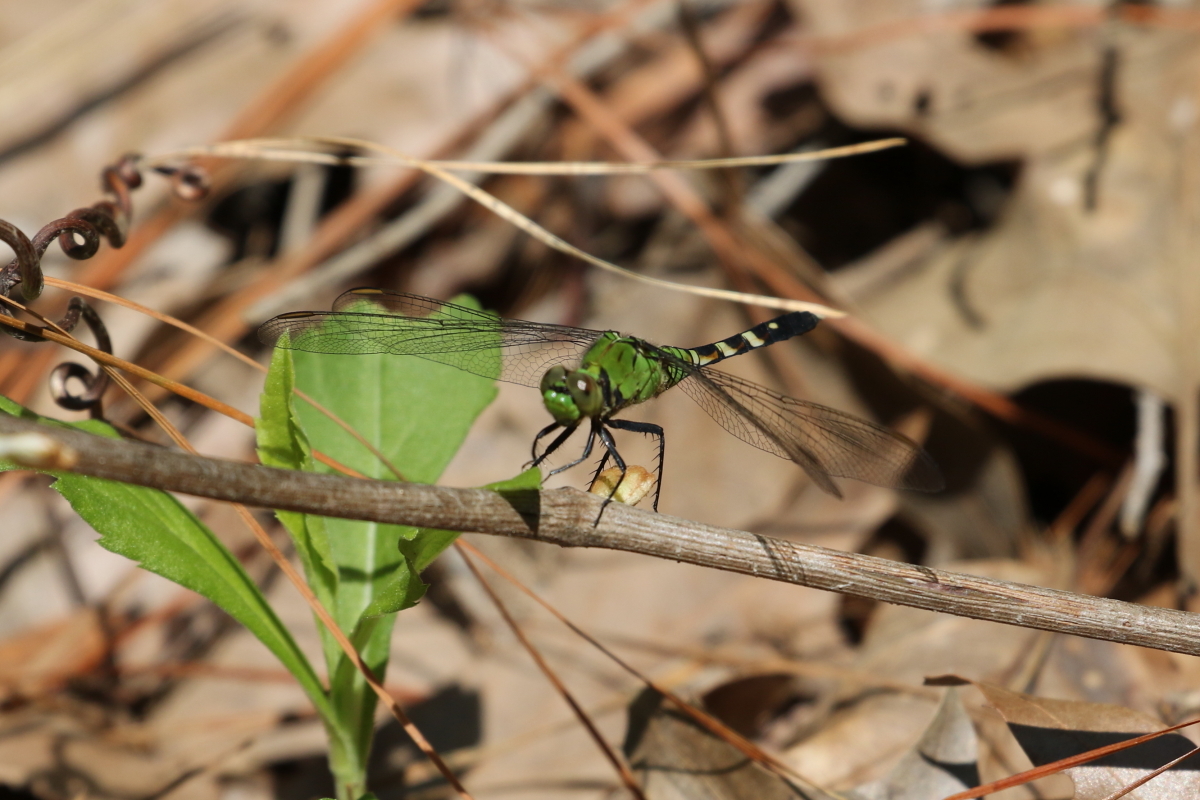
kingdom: Animalia
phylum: Arthropoda
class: Insecta
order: Odonata
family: Libellulidae
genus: Erythemis
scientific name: Erythemis simplicicollis
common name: Eastern pondhawk
